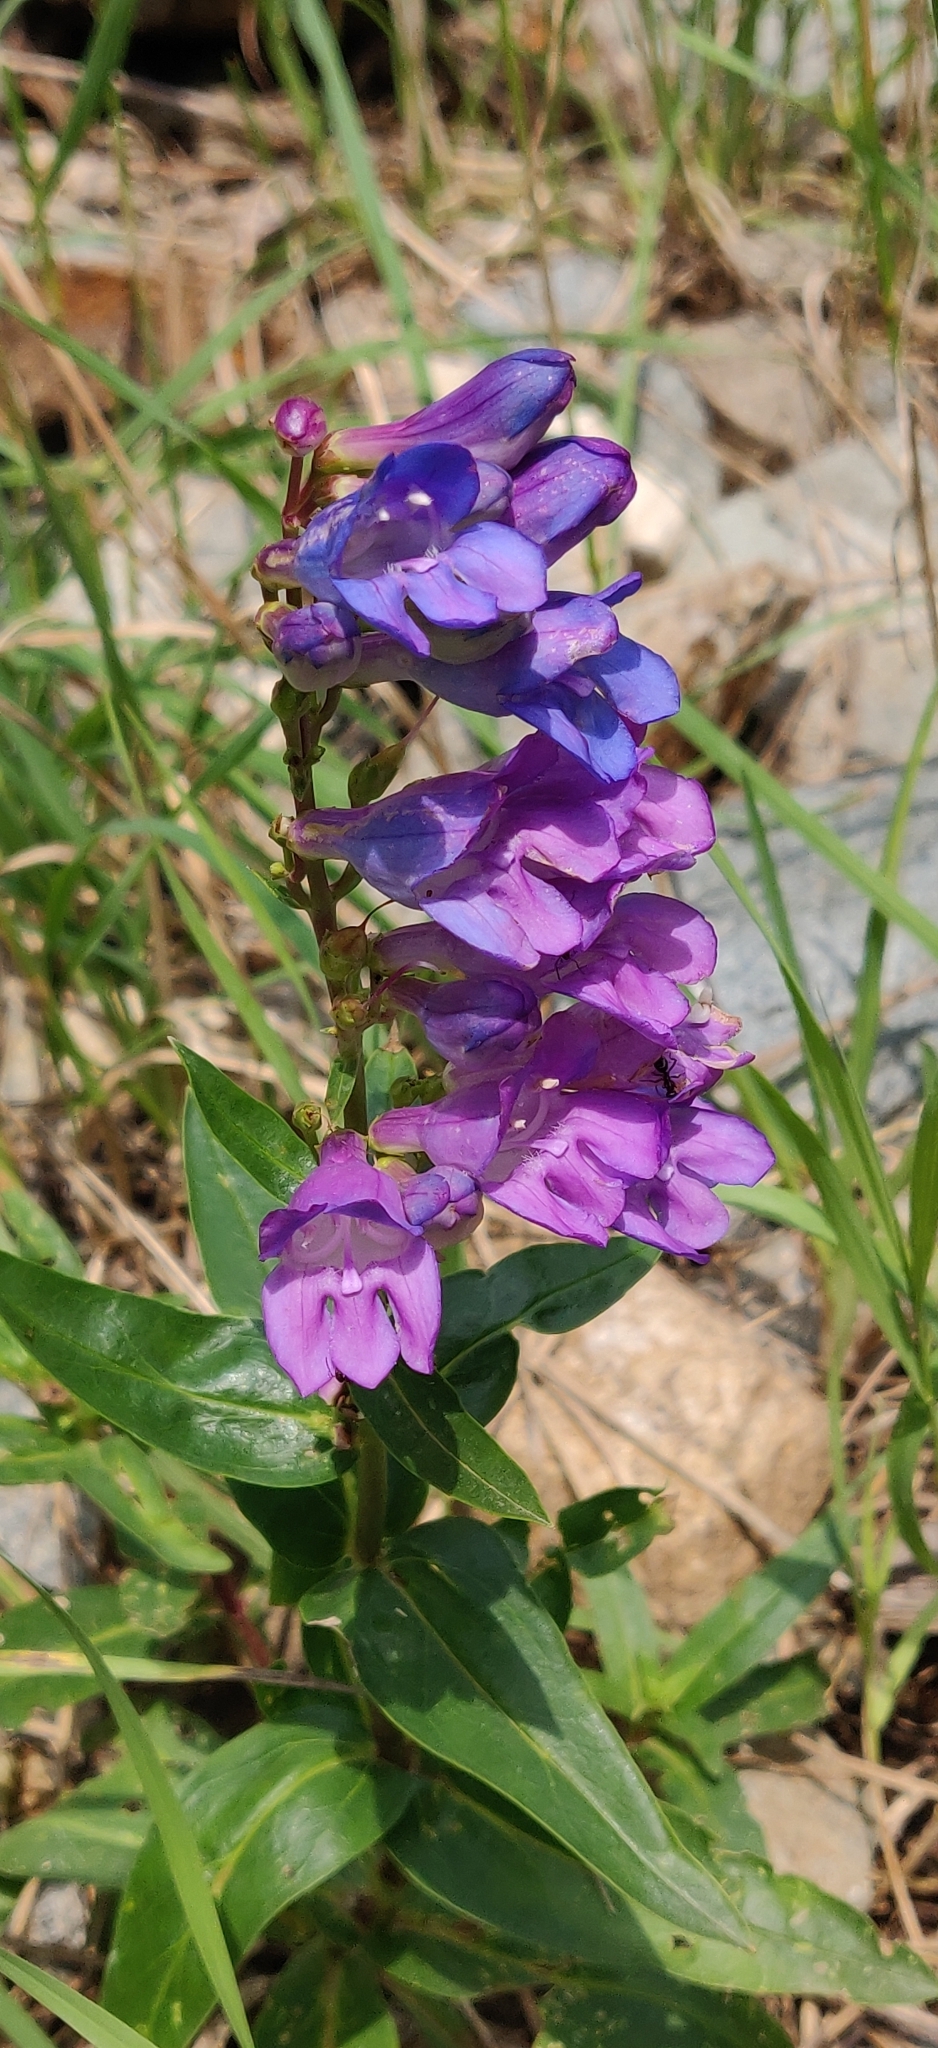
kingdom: Plantae
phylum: Tracheophyta
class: Magnoliopsida
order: Lamiales
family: Plantaginaceae
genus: Penstemon
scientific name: Penstemon glaber
